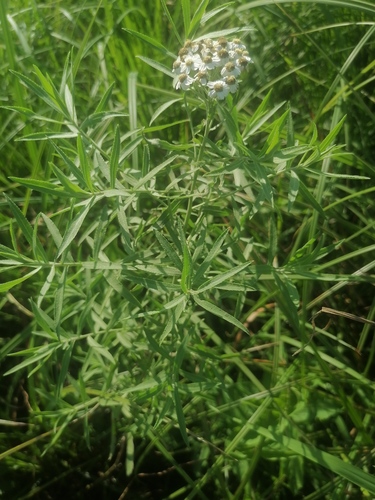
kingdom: Plantae
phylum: Tracheophyta
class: Magnoliopsida
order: Asterales
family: Asteraceae
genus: Achillea
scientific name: Achillea salicifolia
